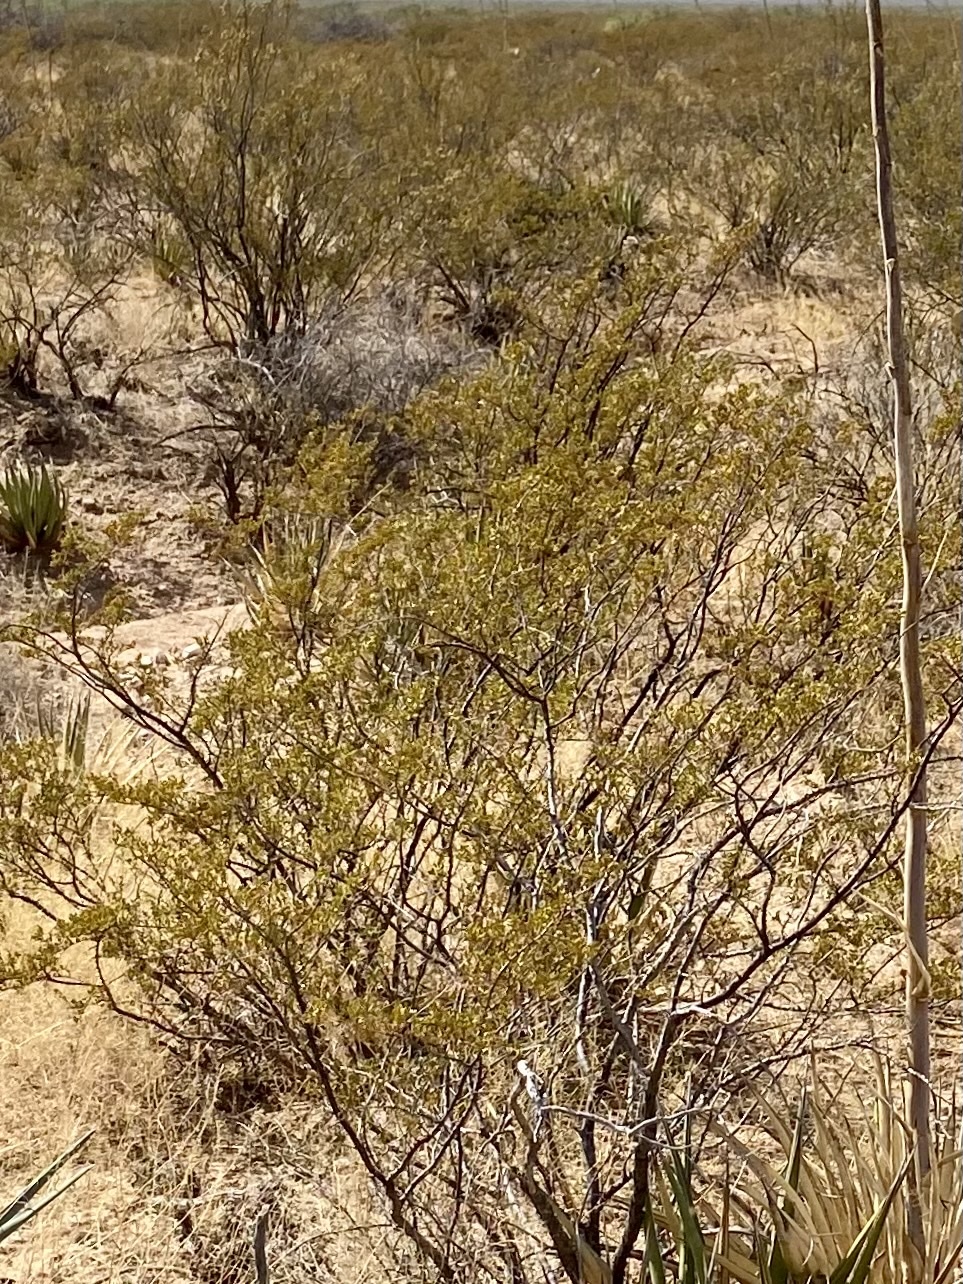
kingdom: Plantae
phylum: Tracheophyta
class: Magnoliopsida
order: Zygophyllales
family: Zygophyllaceae
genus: Larrea
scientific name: Larrea tridentata
